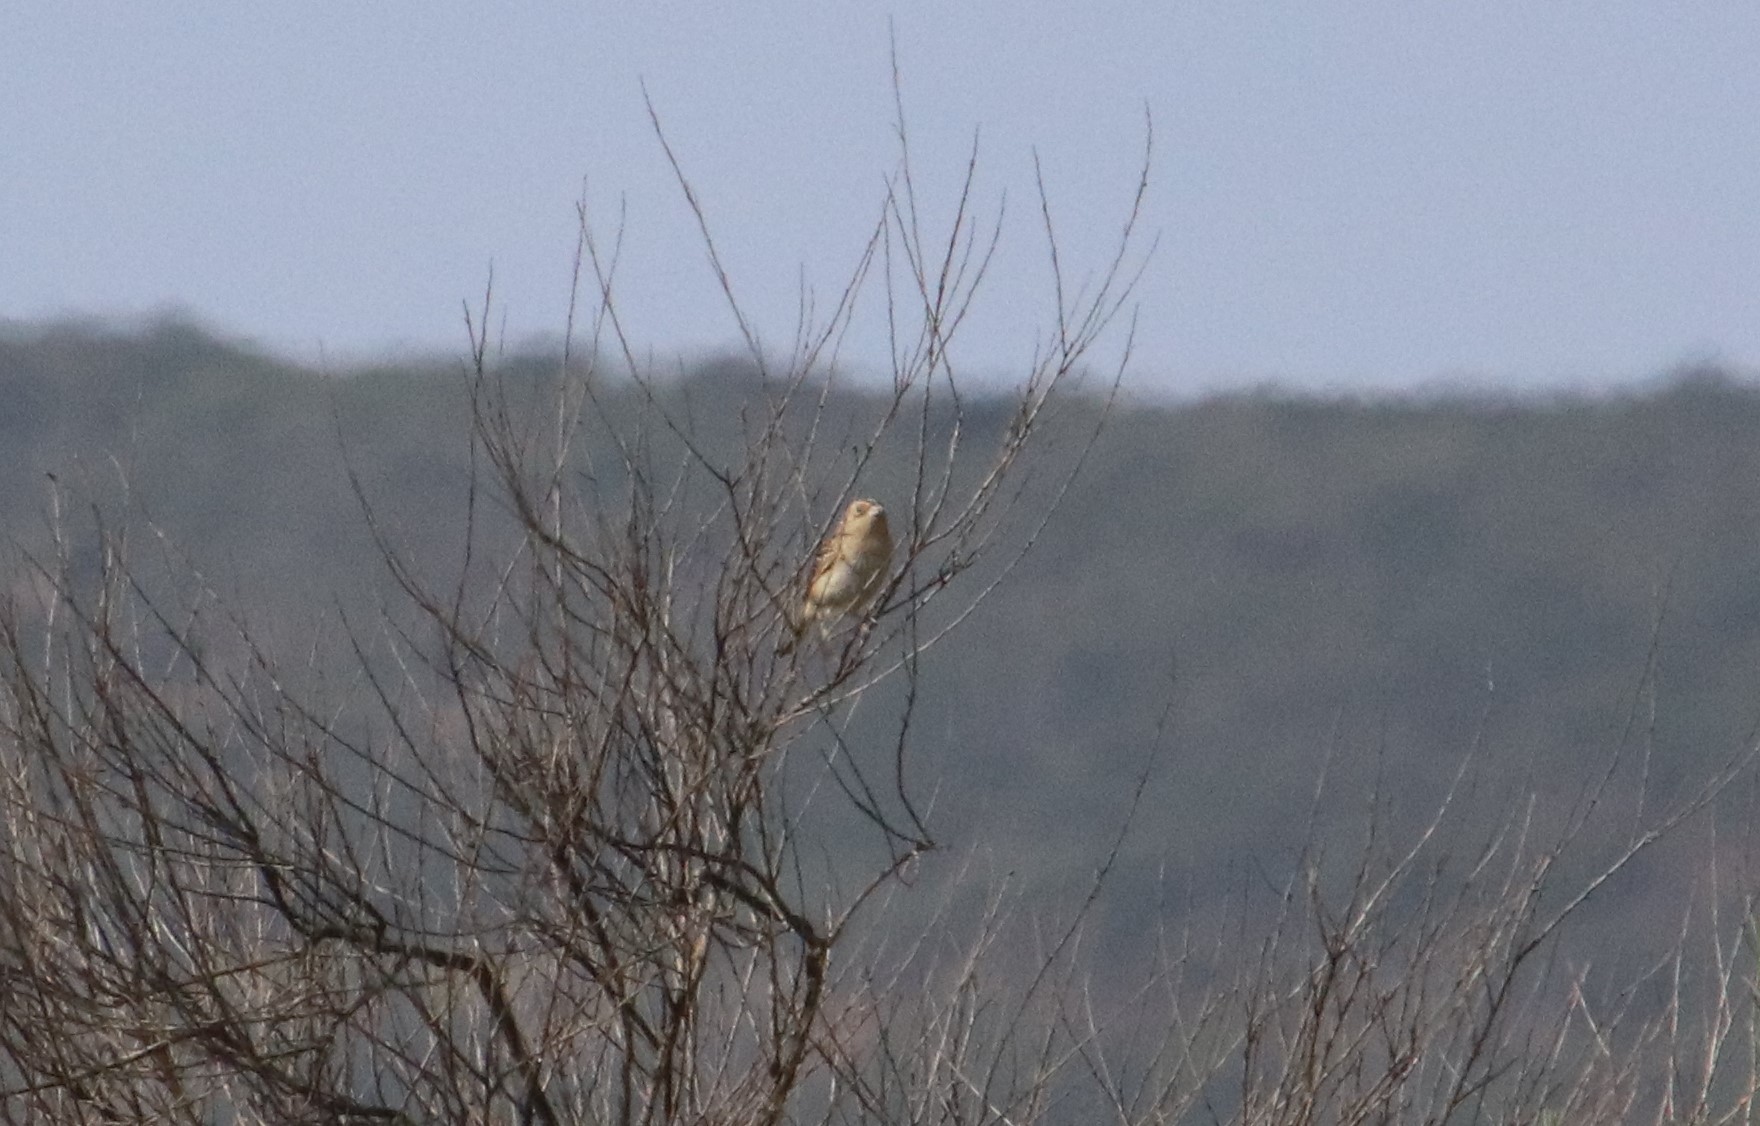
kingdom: Animalia
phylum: Chordata
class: Aves
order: Passeriformes
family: Passerellidae
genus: Ammodramus
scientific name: Ammodramus savannarum
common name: Grasshopper sparrow
